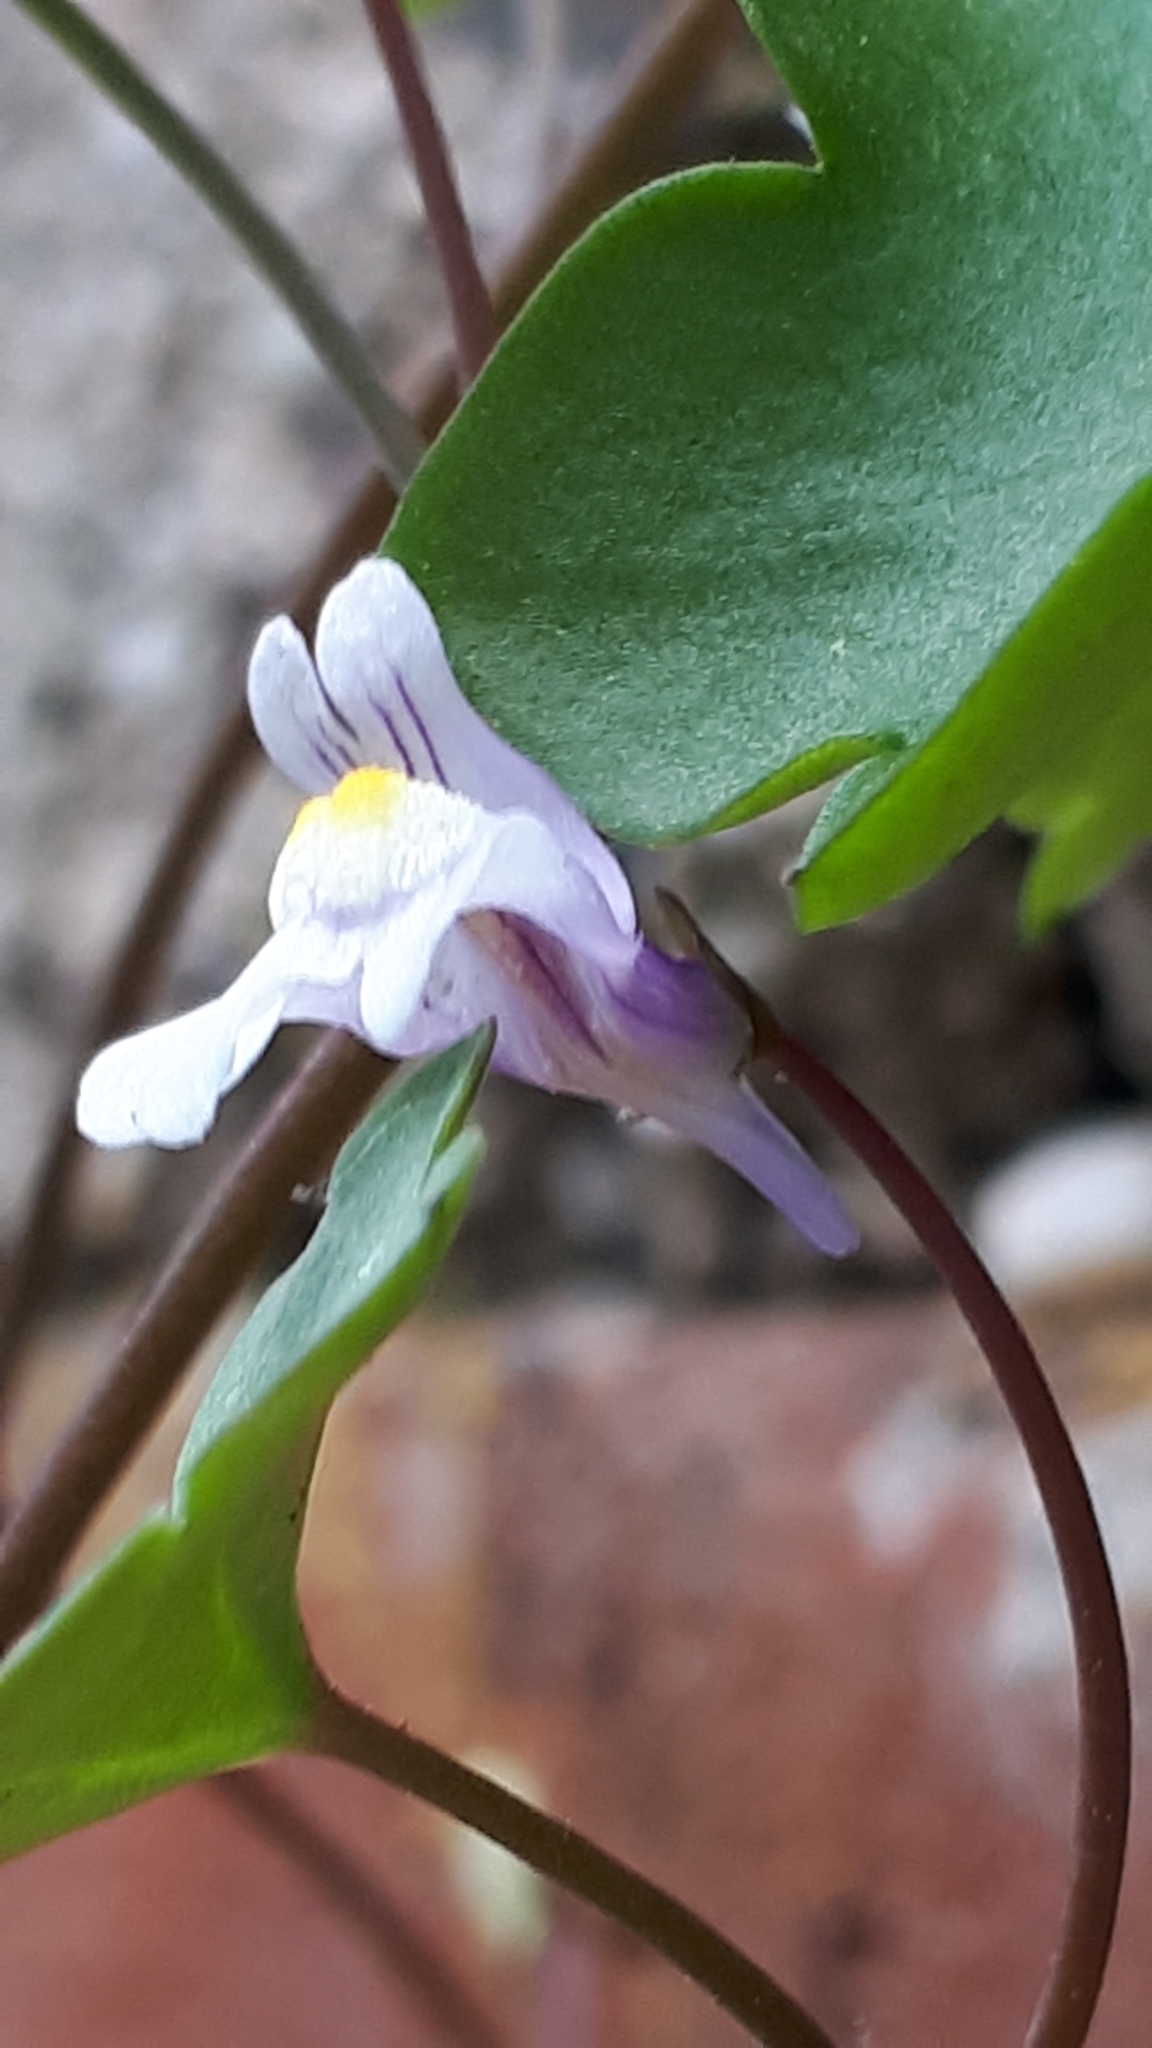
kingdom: Plantae
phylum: Tracheophyta
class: Magnoliopsida
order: Lamiales
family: Plantaginaceae
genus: Cymbalaria
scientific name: Cymbalaria muralis
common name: Ivy-leaved toadflax
